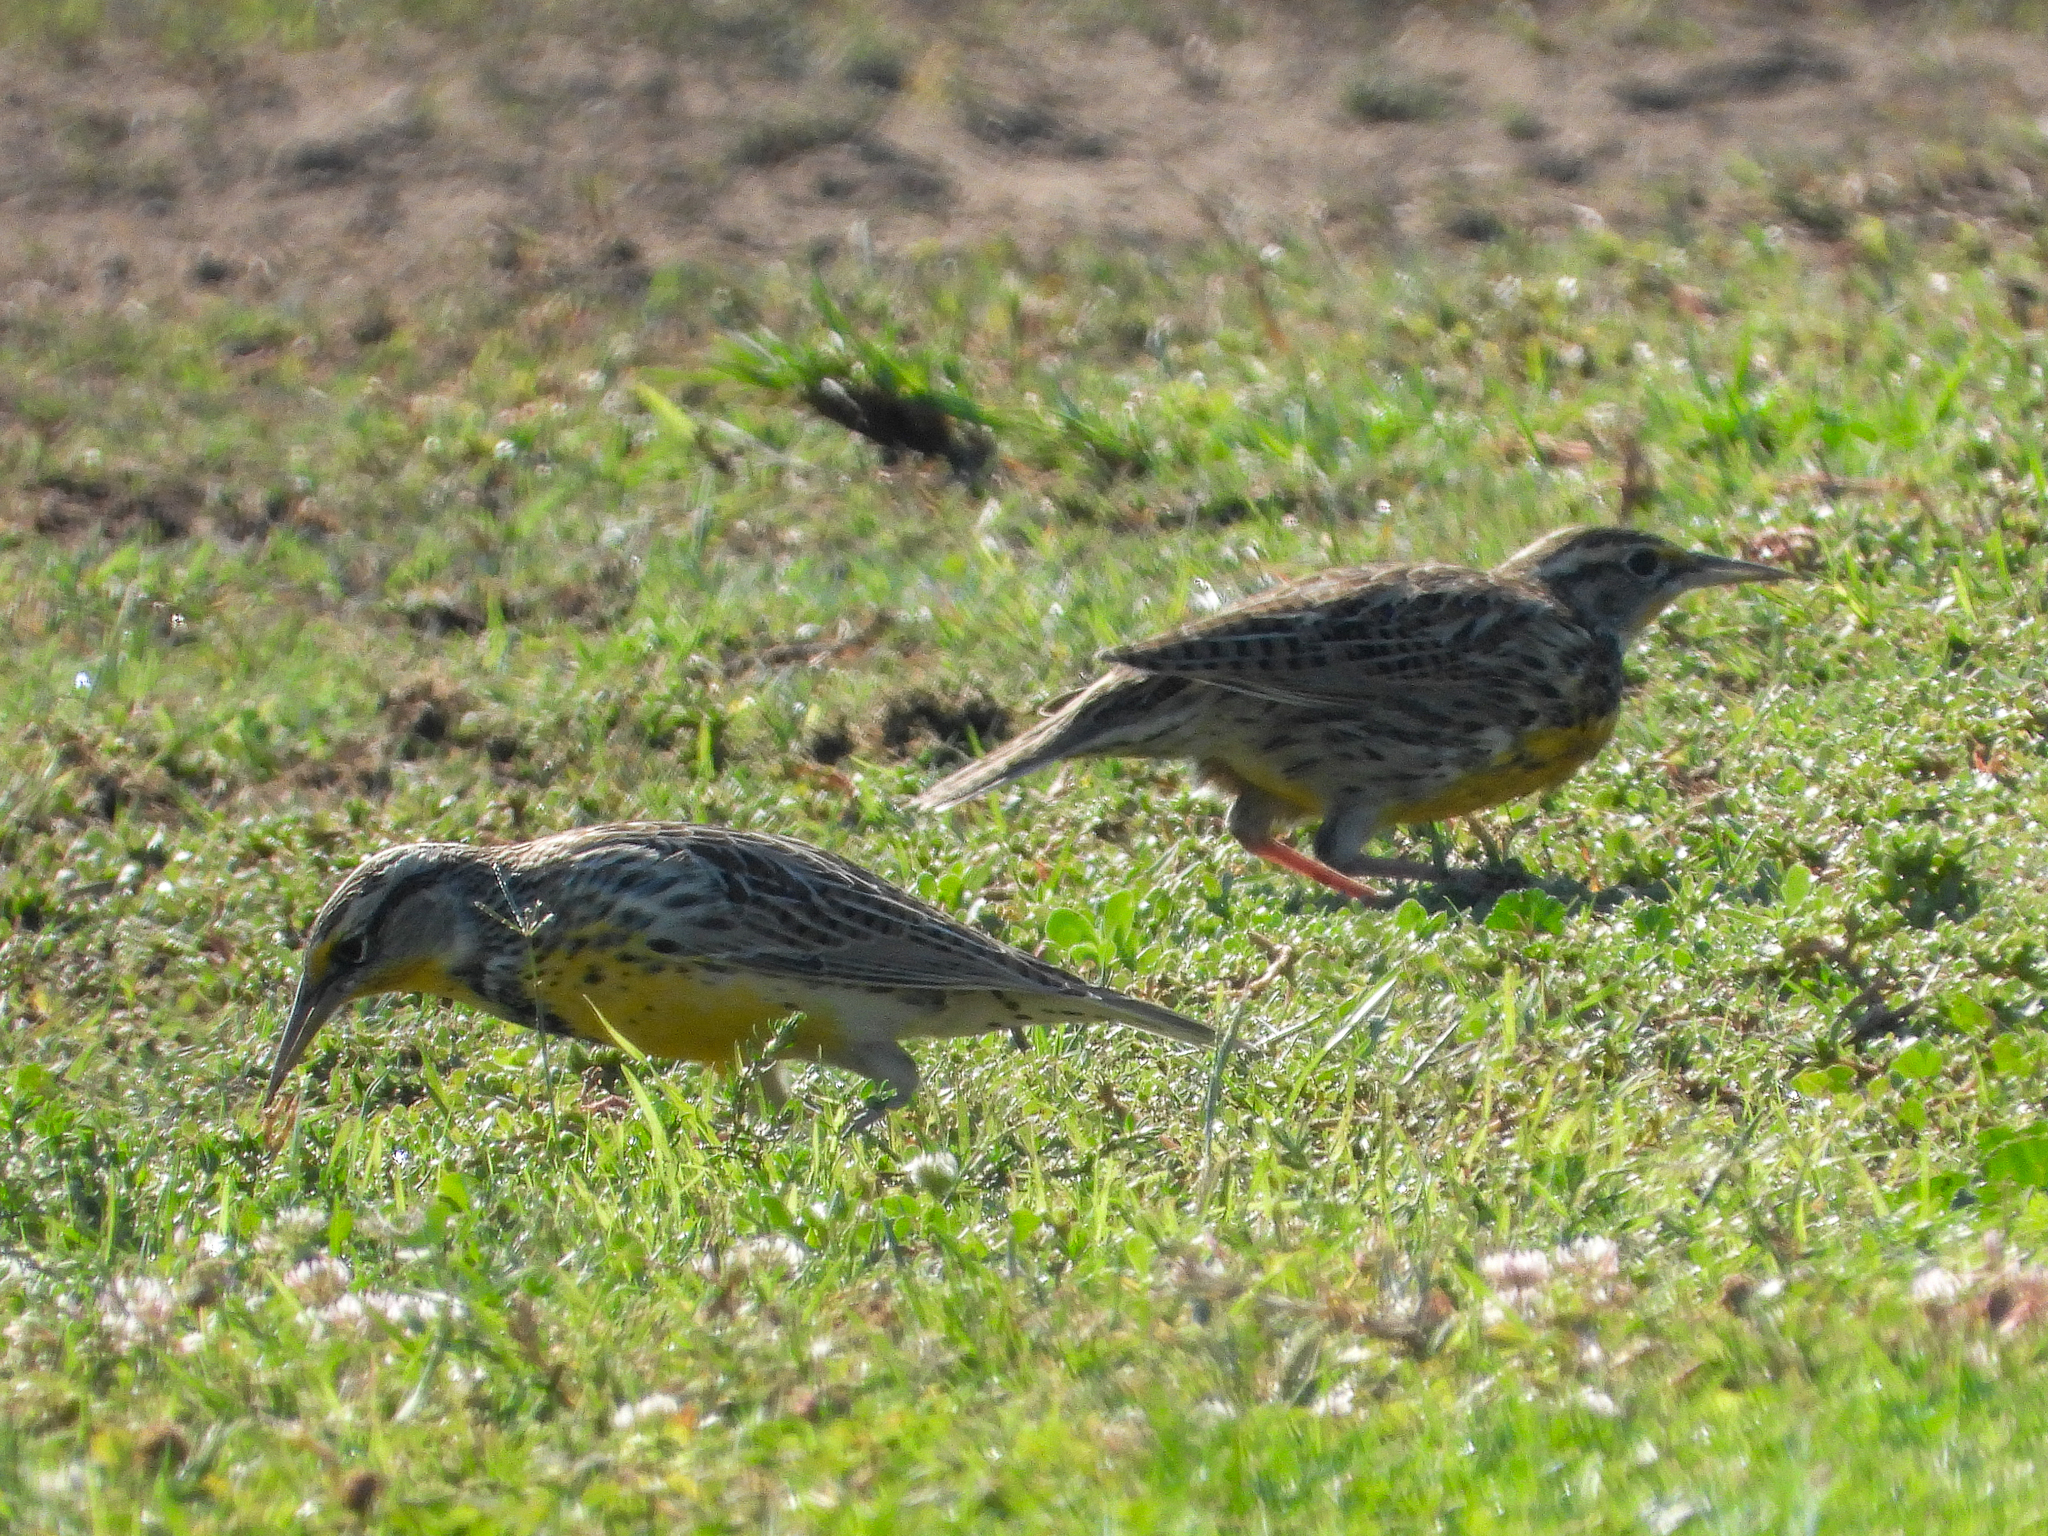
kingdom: Animalia
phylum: Chordata
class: Aves
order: Passeriformes
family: Icteridae
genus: Sturnella
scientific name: Sturnella neglecta
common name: Western meadowlark
